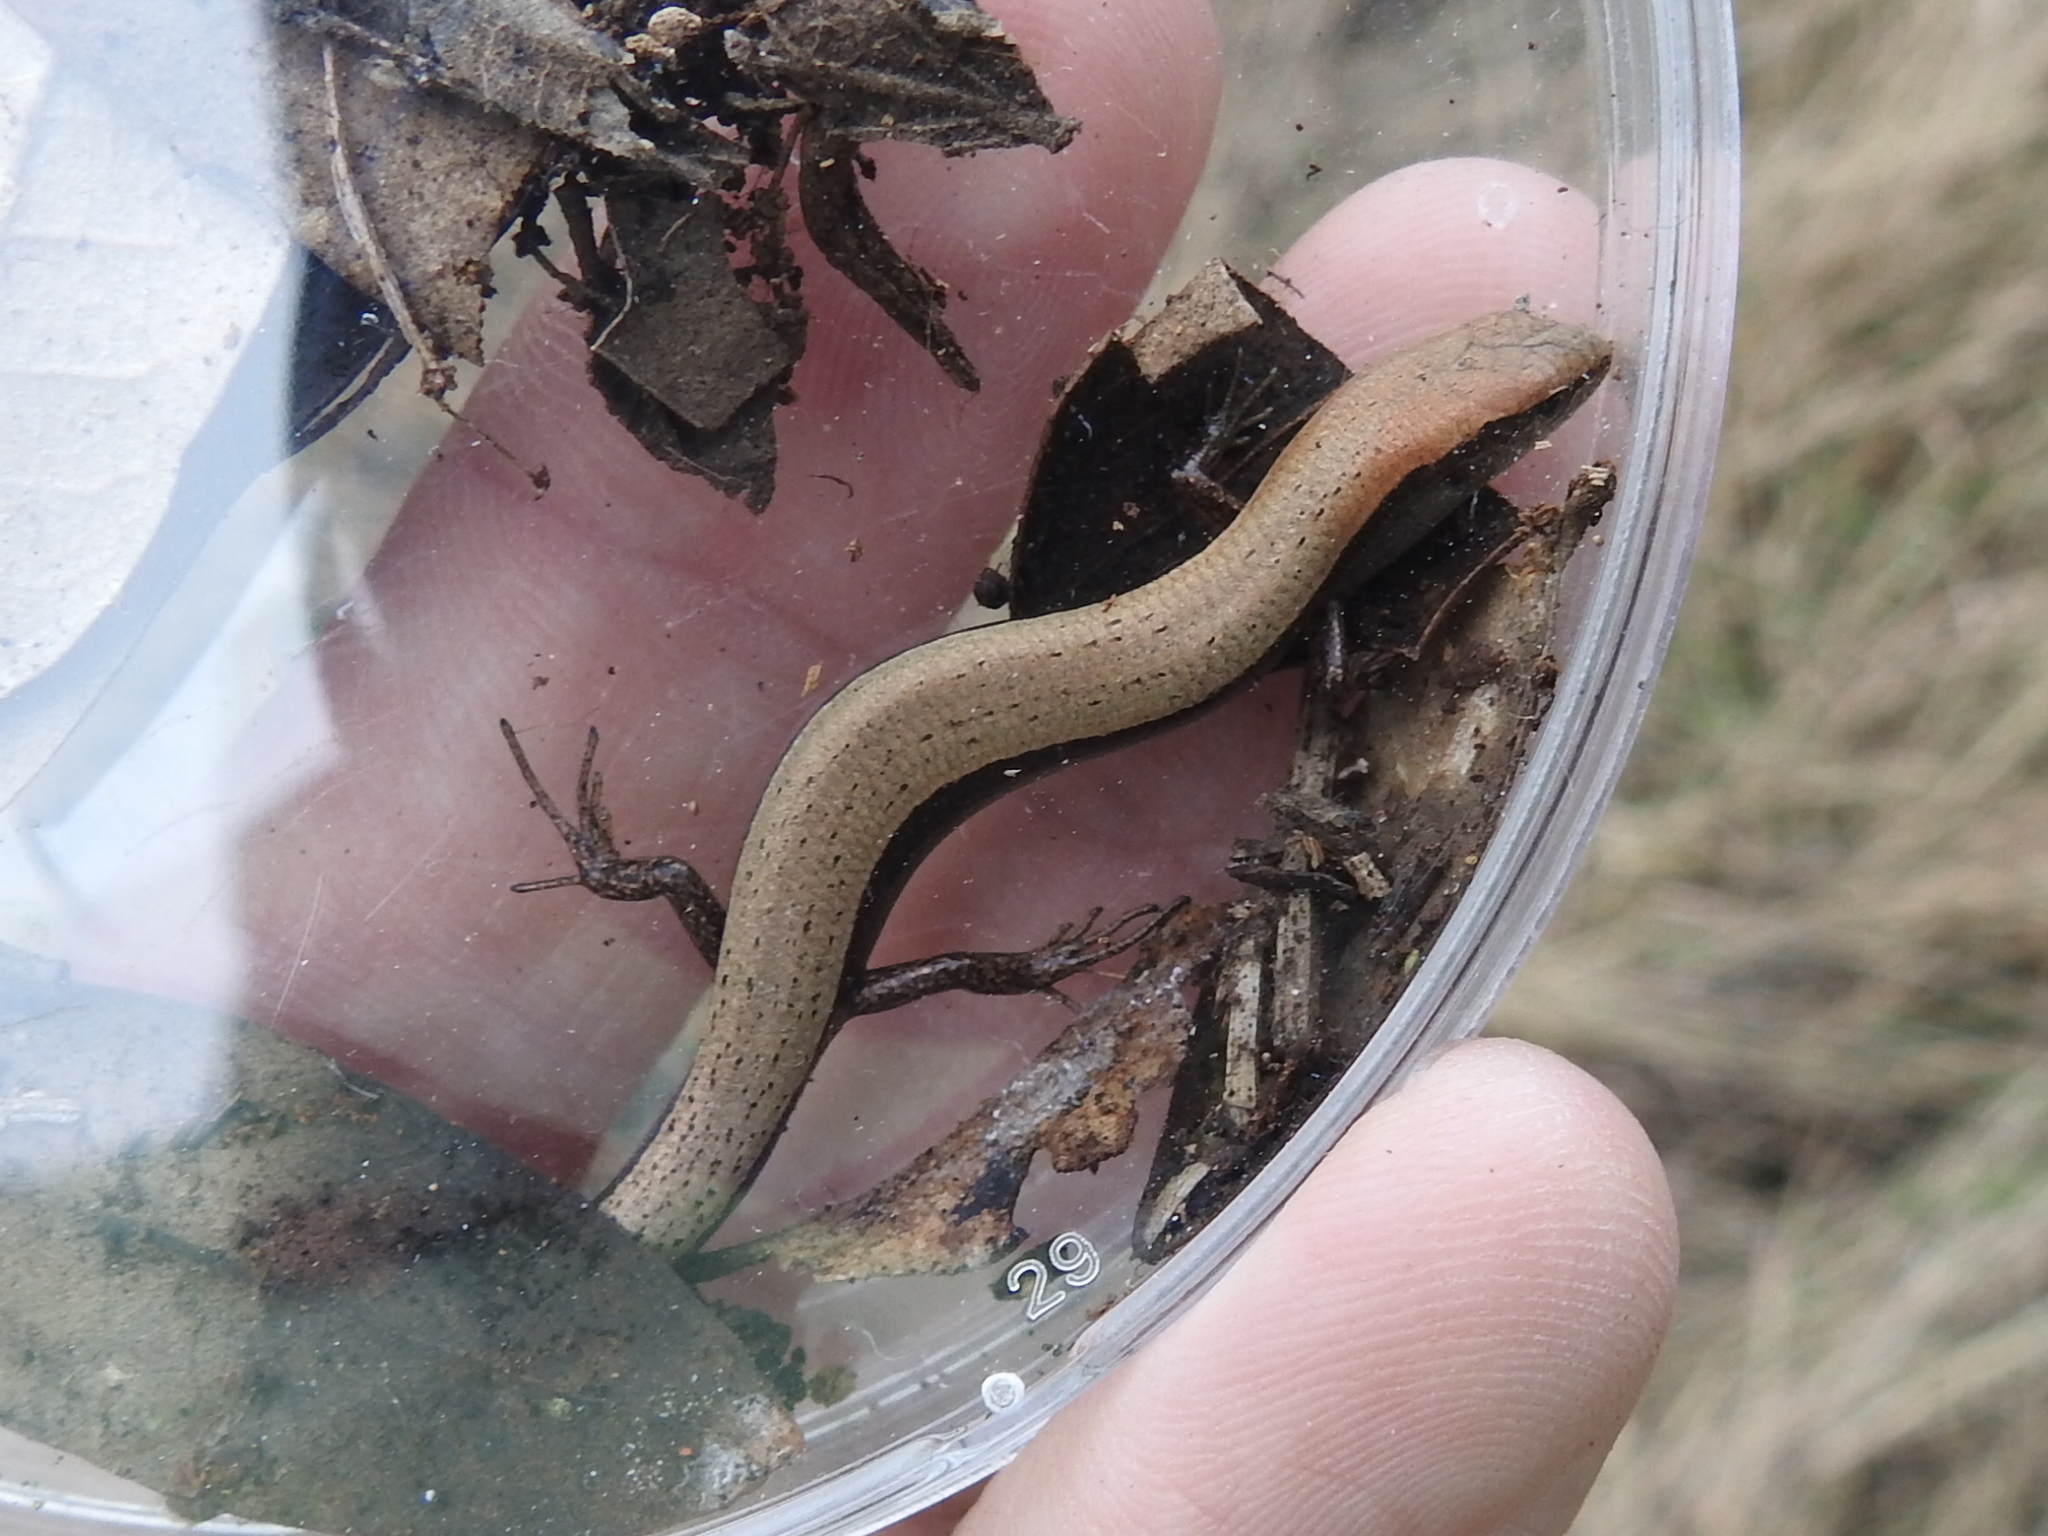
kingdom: Animalia
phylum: Chordata
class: Squamata
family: Scincidae
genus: Scincella
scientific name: Scincella lateralis
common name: Ground skink
